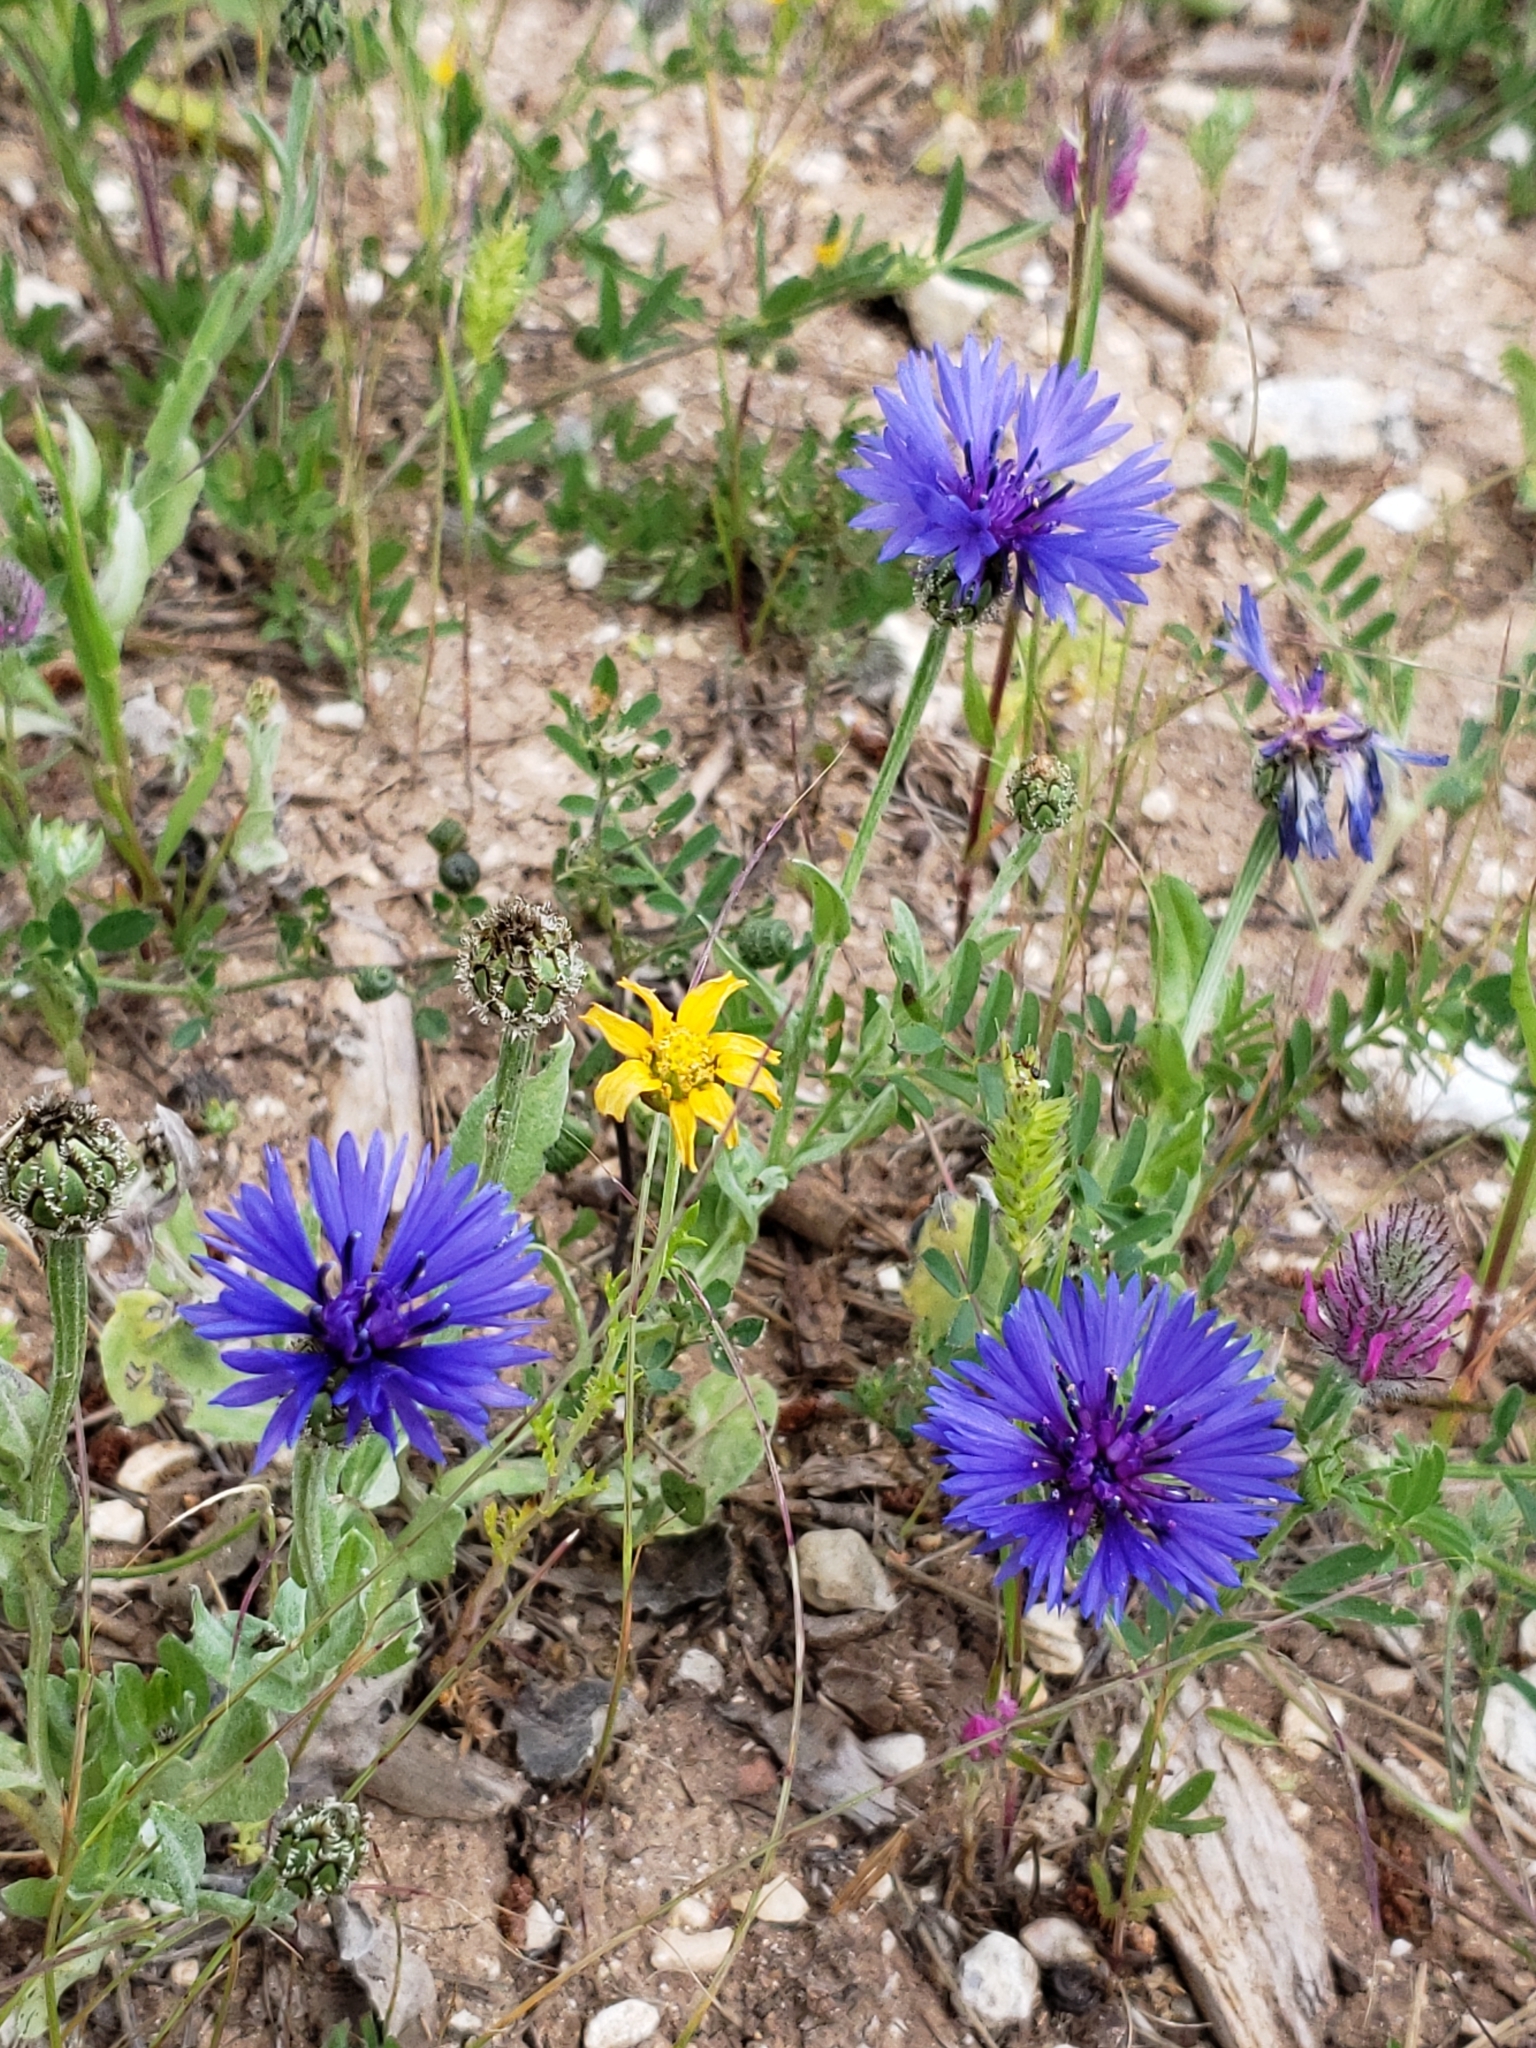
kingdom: Plantae
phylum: Tracheophyta
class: Magnoliopsida
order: Asterales
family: Asteraceae
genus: Centaurea
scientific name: Centaurea cyanoides
